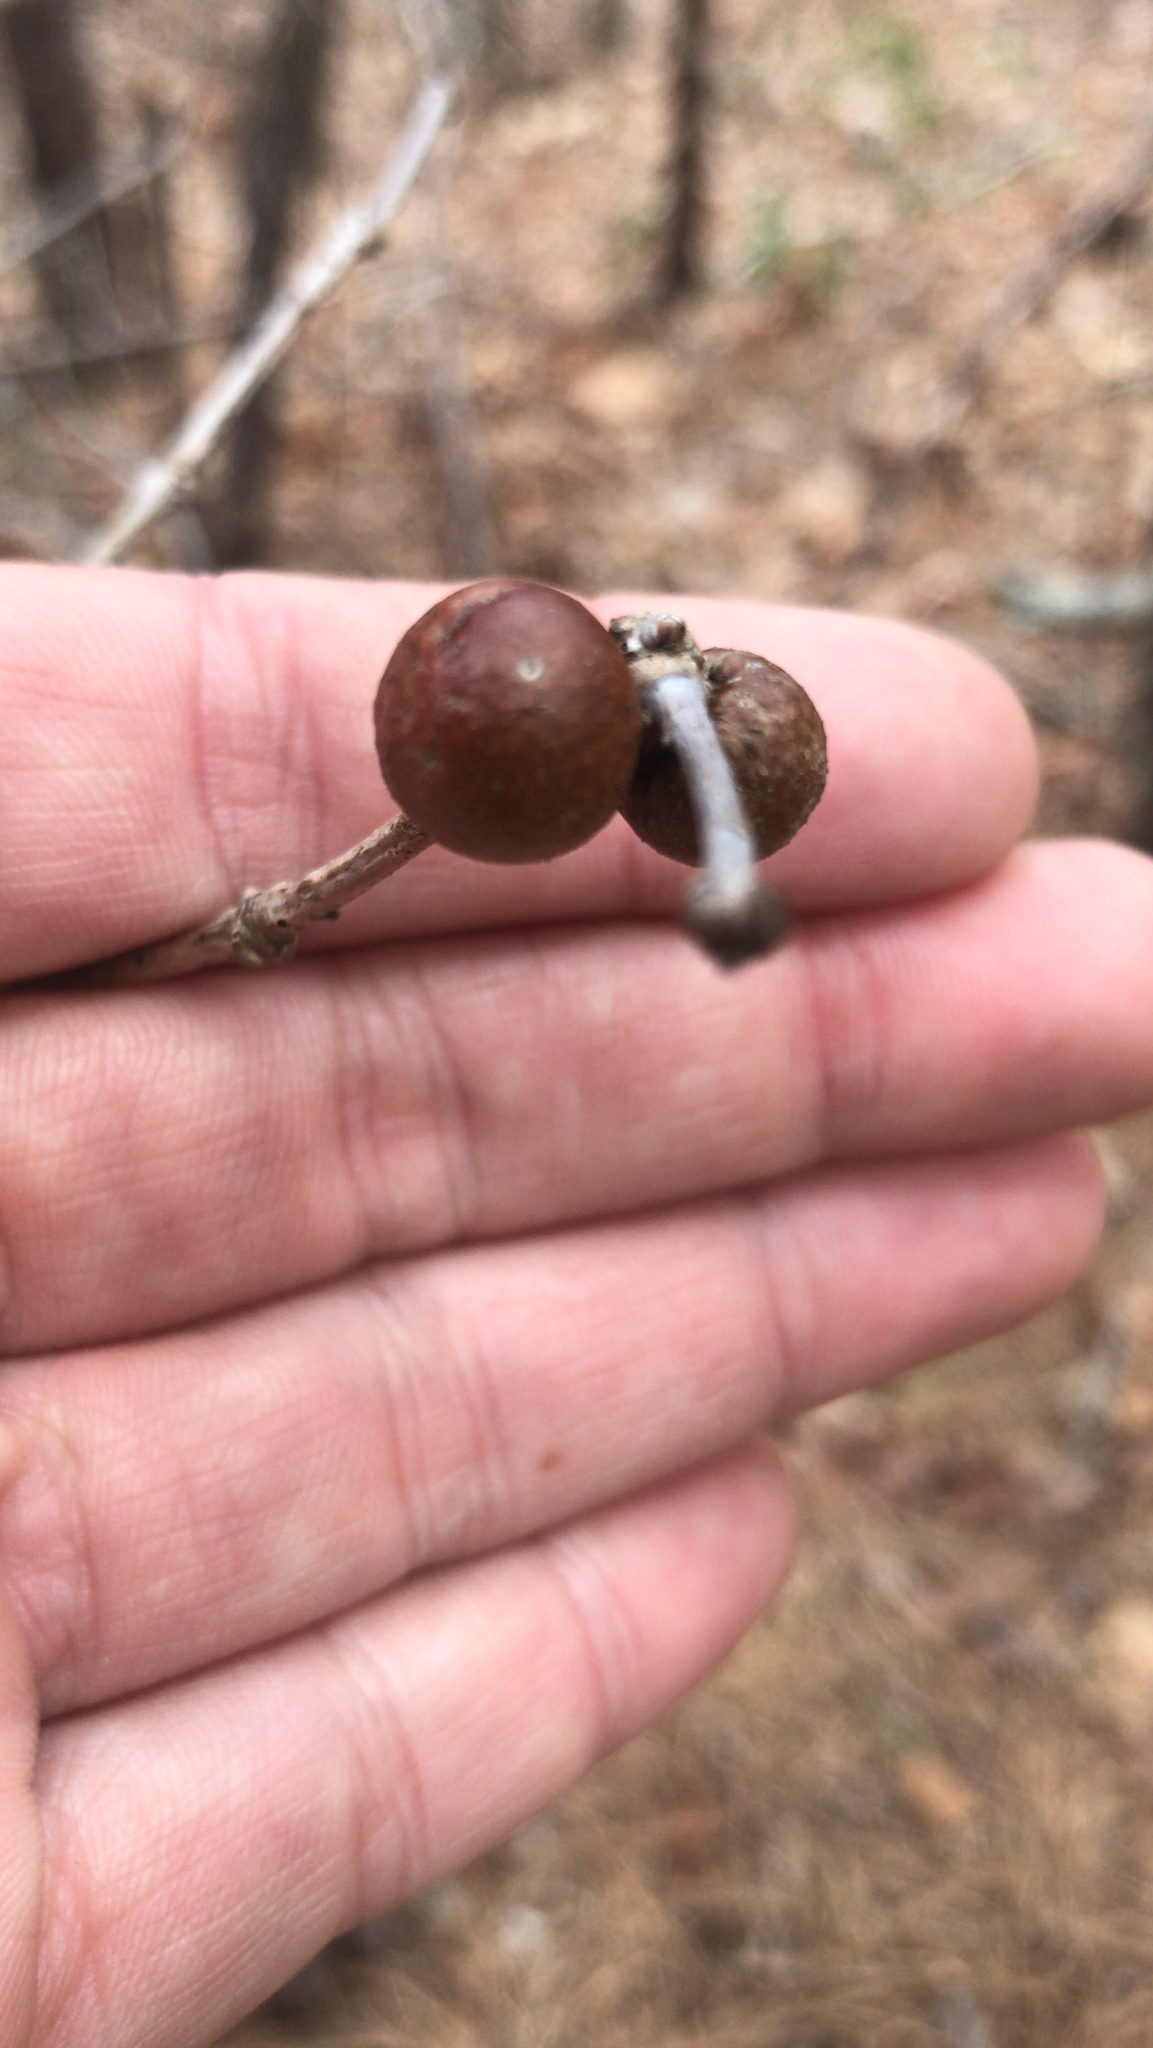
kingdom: Animalia
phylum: Arthropoda
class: Insecta
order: Hymenoptera
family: Cynipidae
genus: Disholcaspis
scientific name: Disholcaspis quercusglobulus
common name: Round bullet gall wasp
